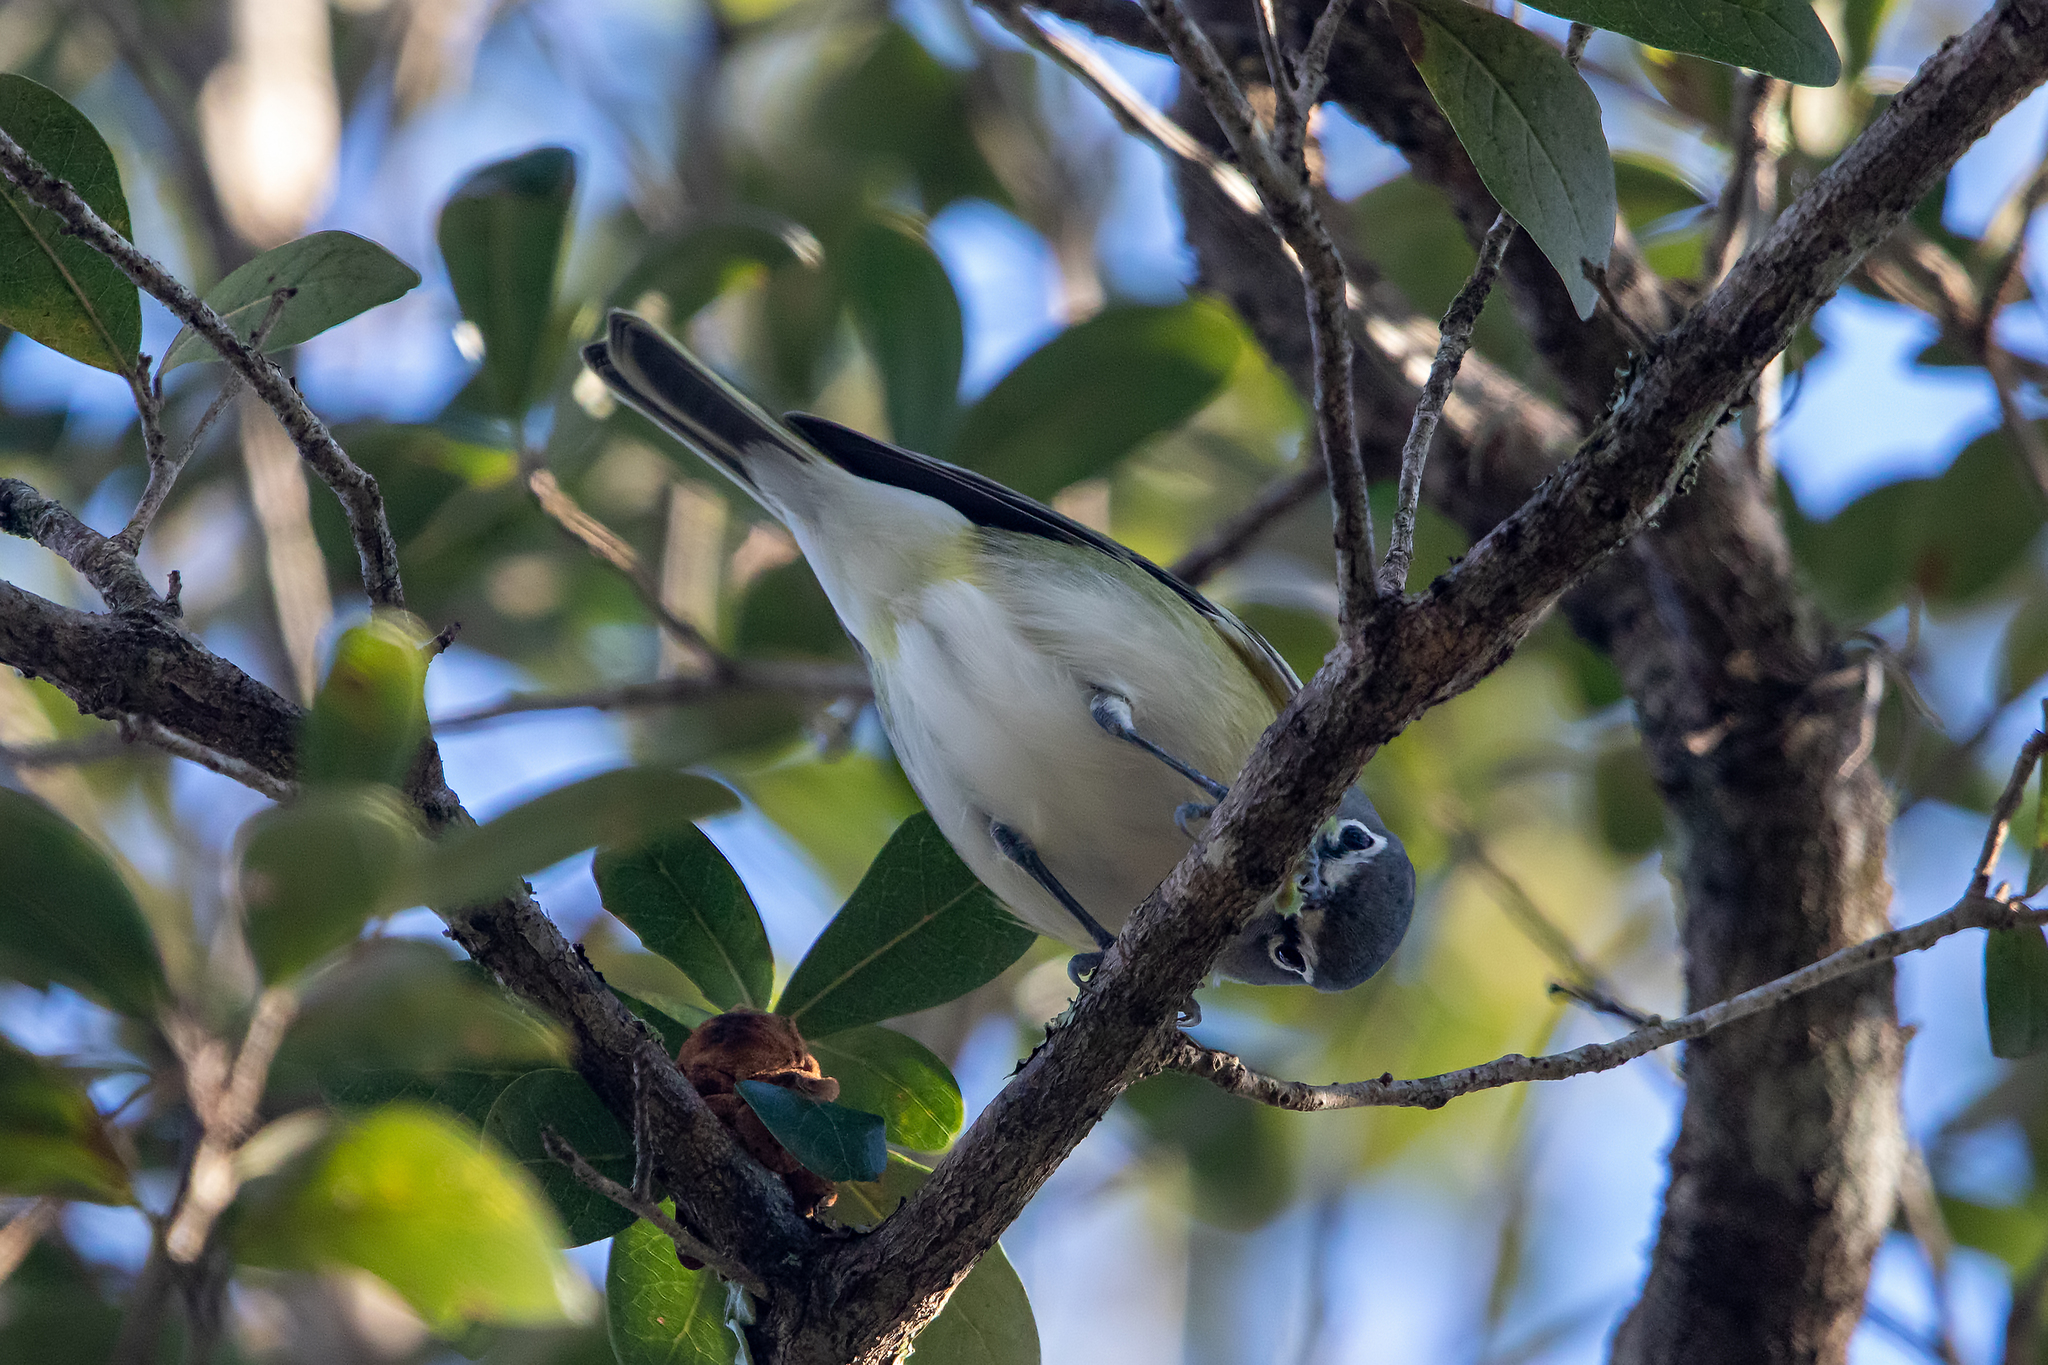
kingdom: Animalia
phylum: Chordata
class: Aves
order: Passeriformes
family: Vireonidae
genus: Vireo
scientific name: Vireo solitarius
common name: Blue-headed vireo
